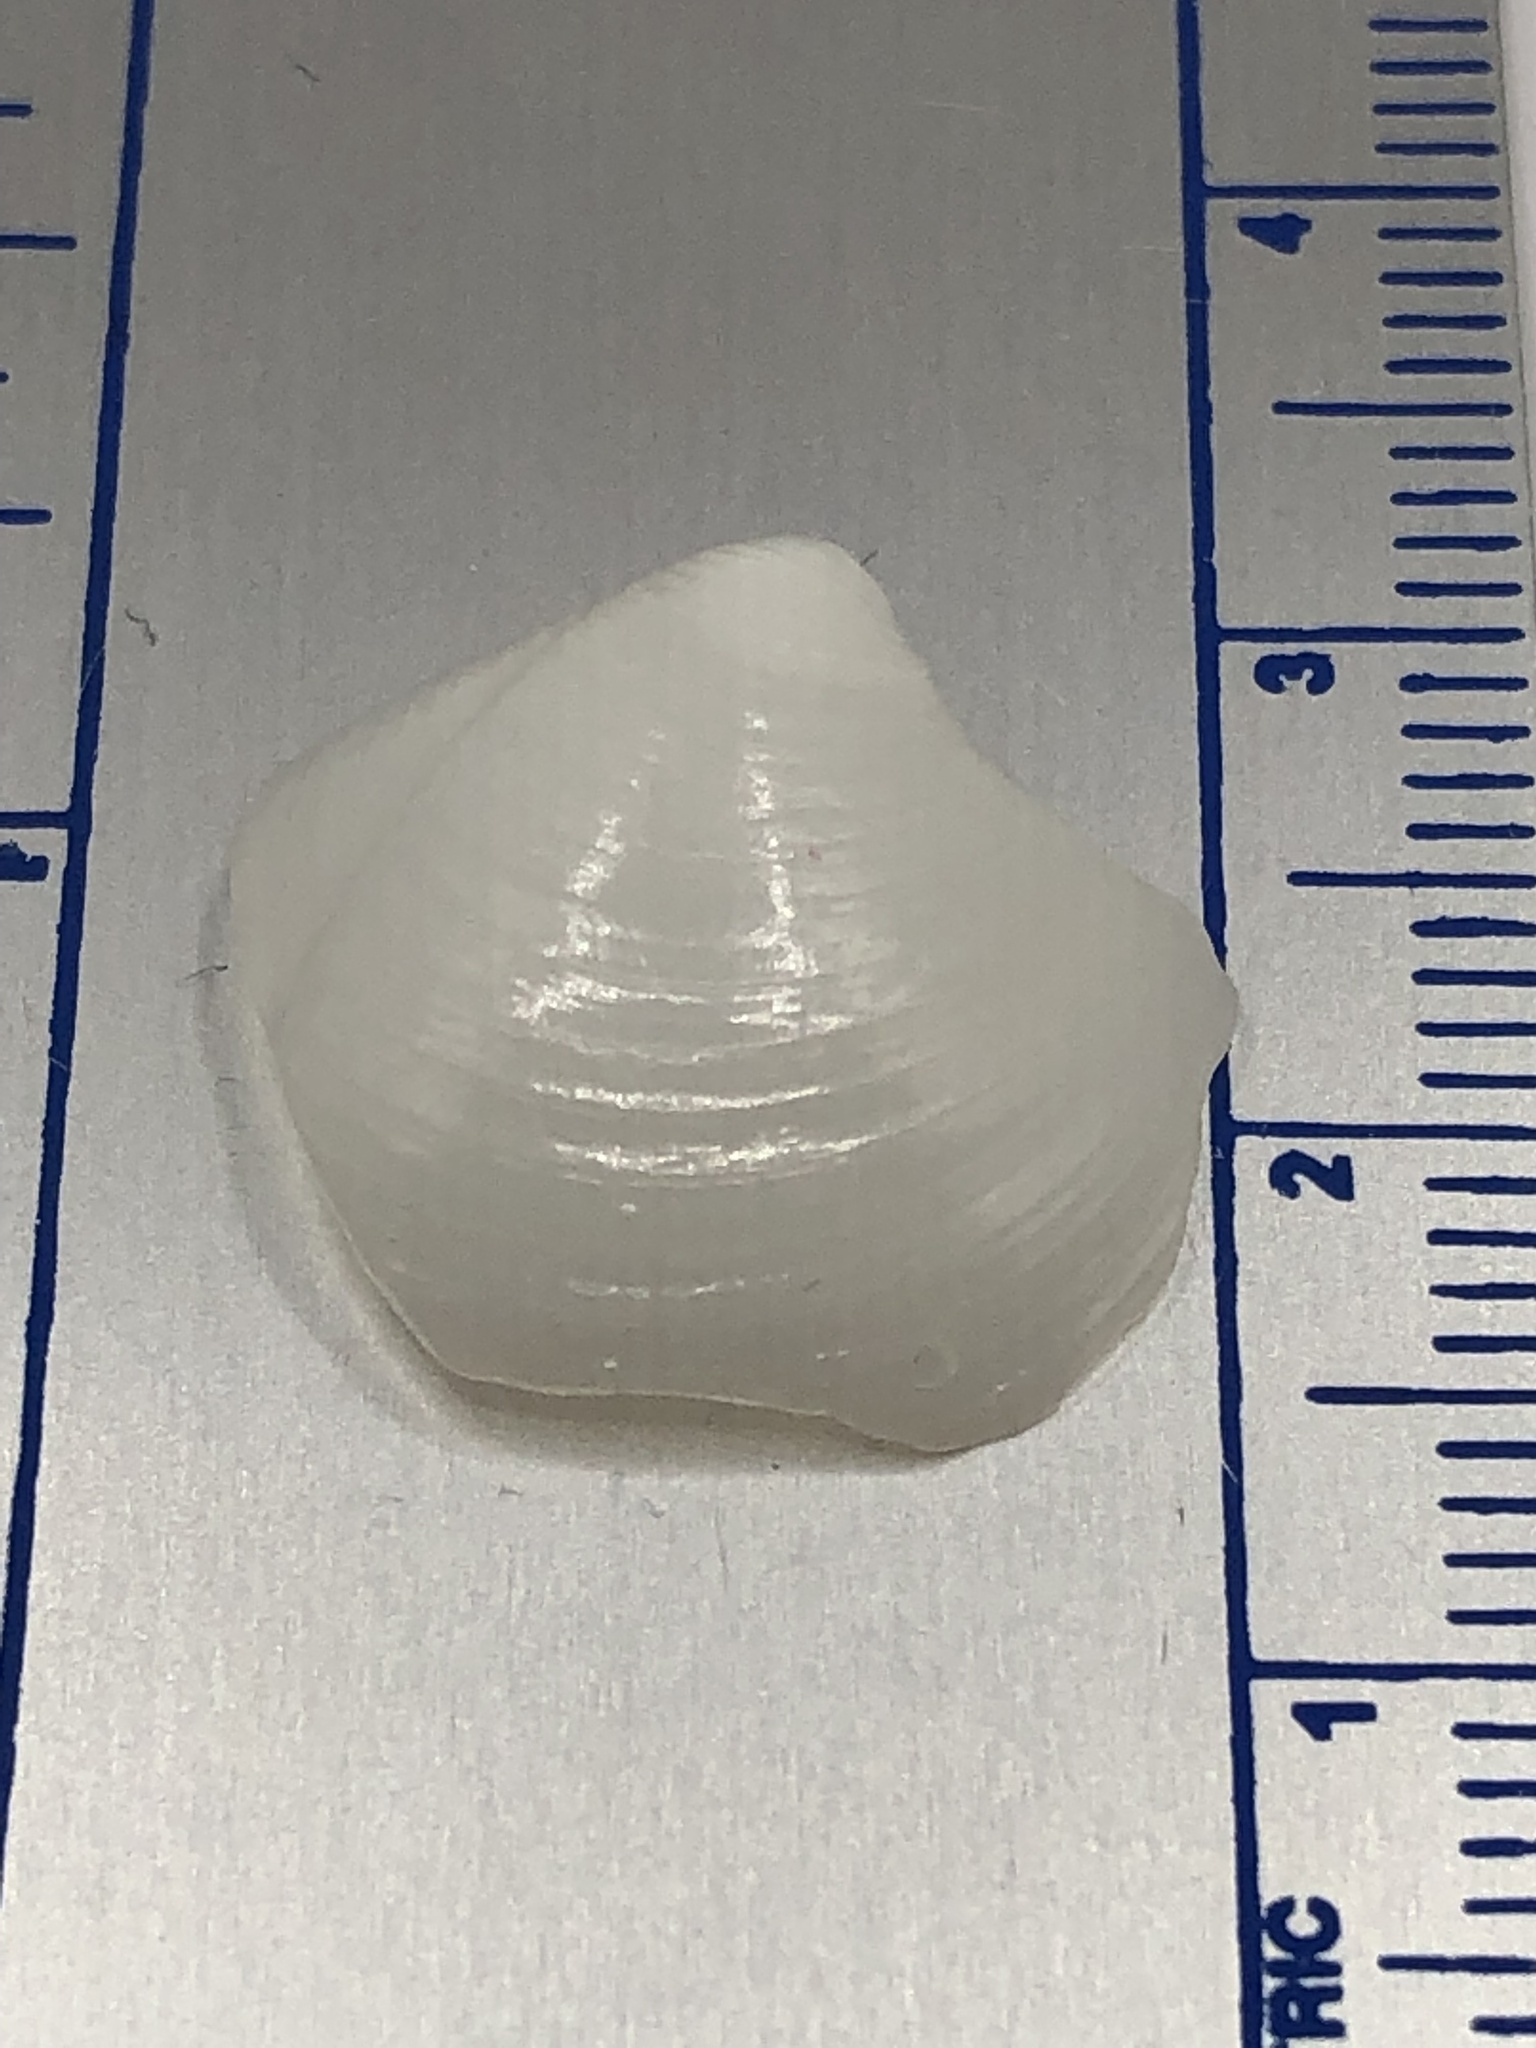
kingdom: Animalia
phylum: Mollusca
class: Bivalvia
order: Lucinida
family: Lucinidae
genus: Lucina
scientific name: Lucina pensylvanica
